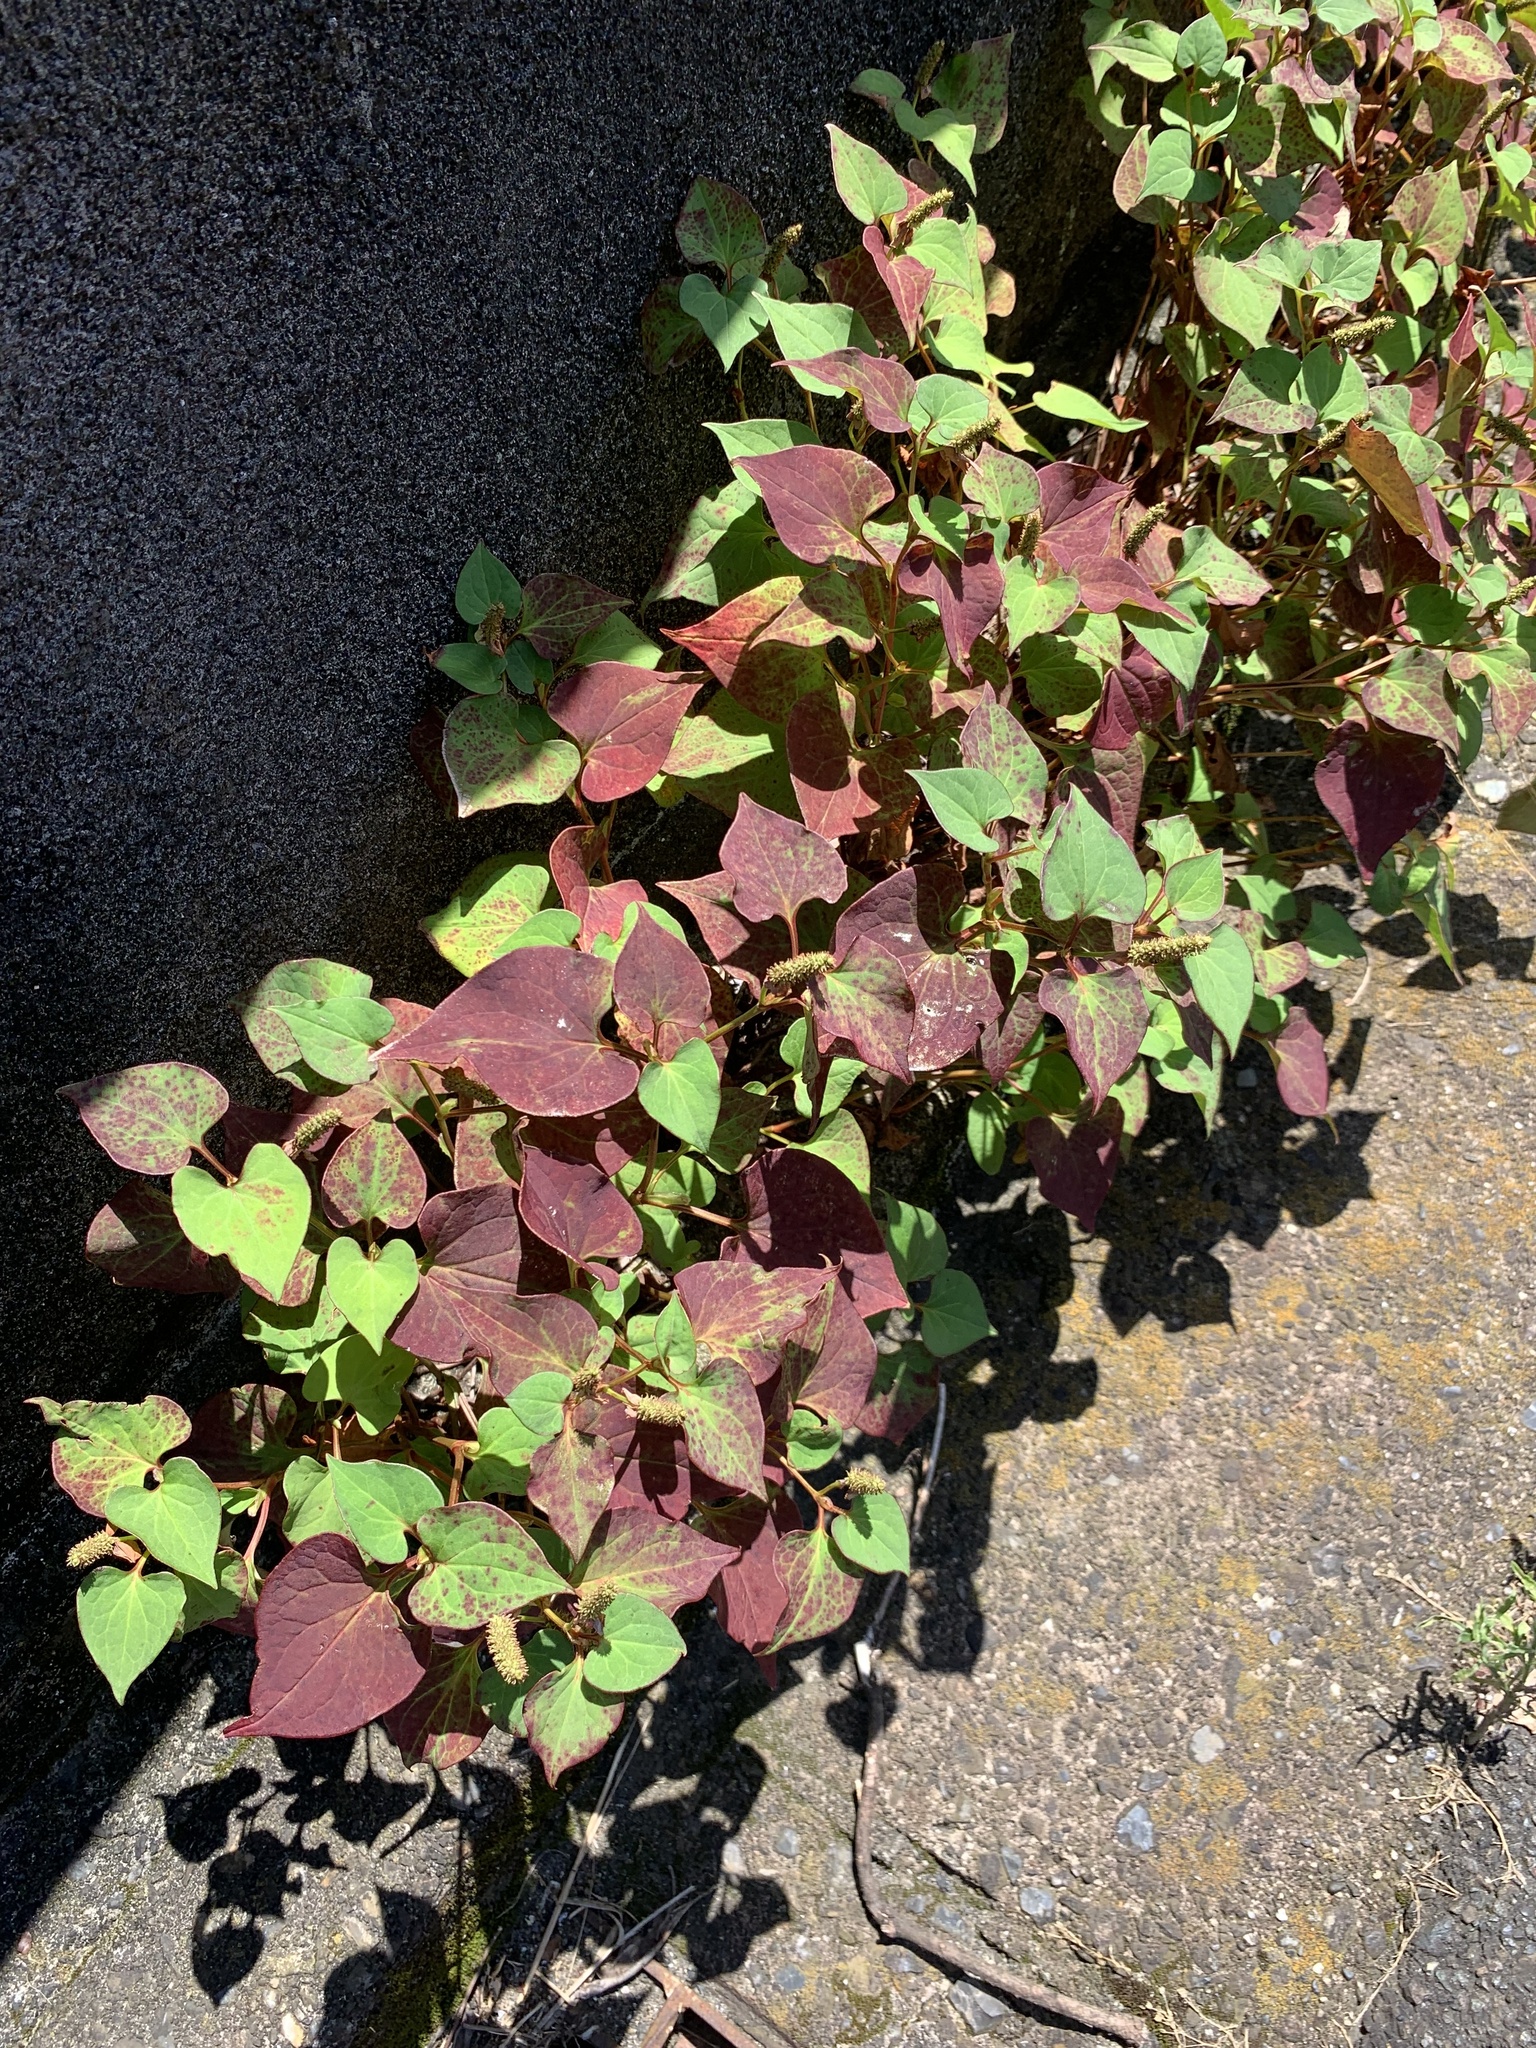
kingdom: Plantae
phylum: Tracheophyta
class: Magnoliopsida
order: Piperales
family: Saururaceae
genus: Houttuynia
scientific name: Houttuynia cordata
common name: Chameleon
